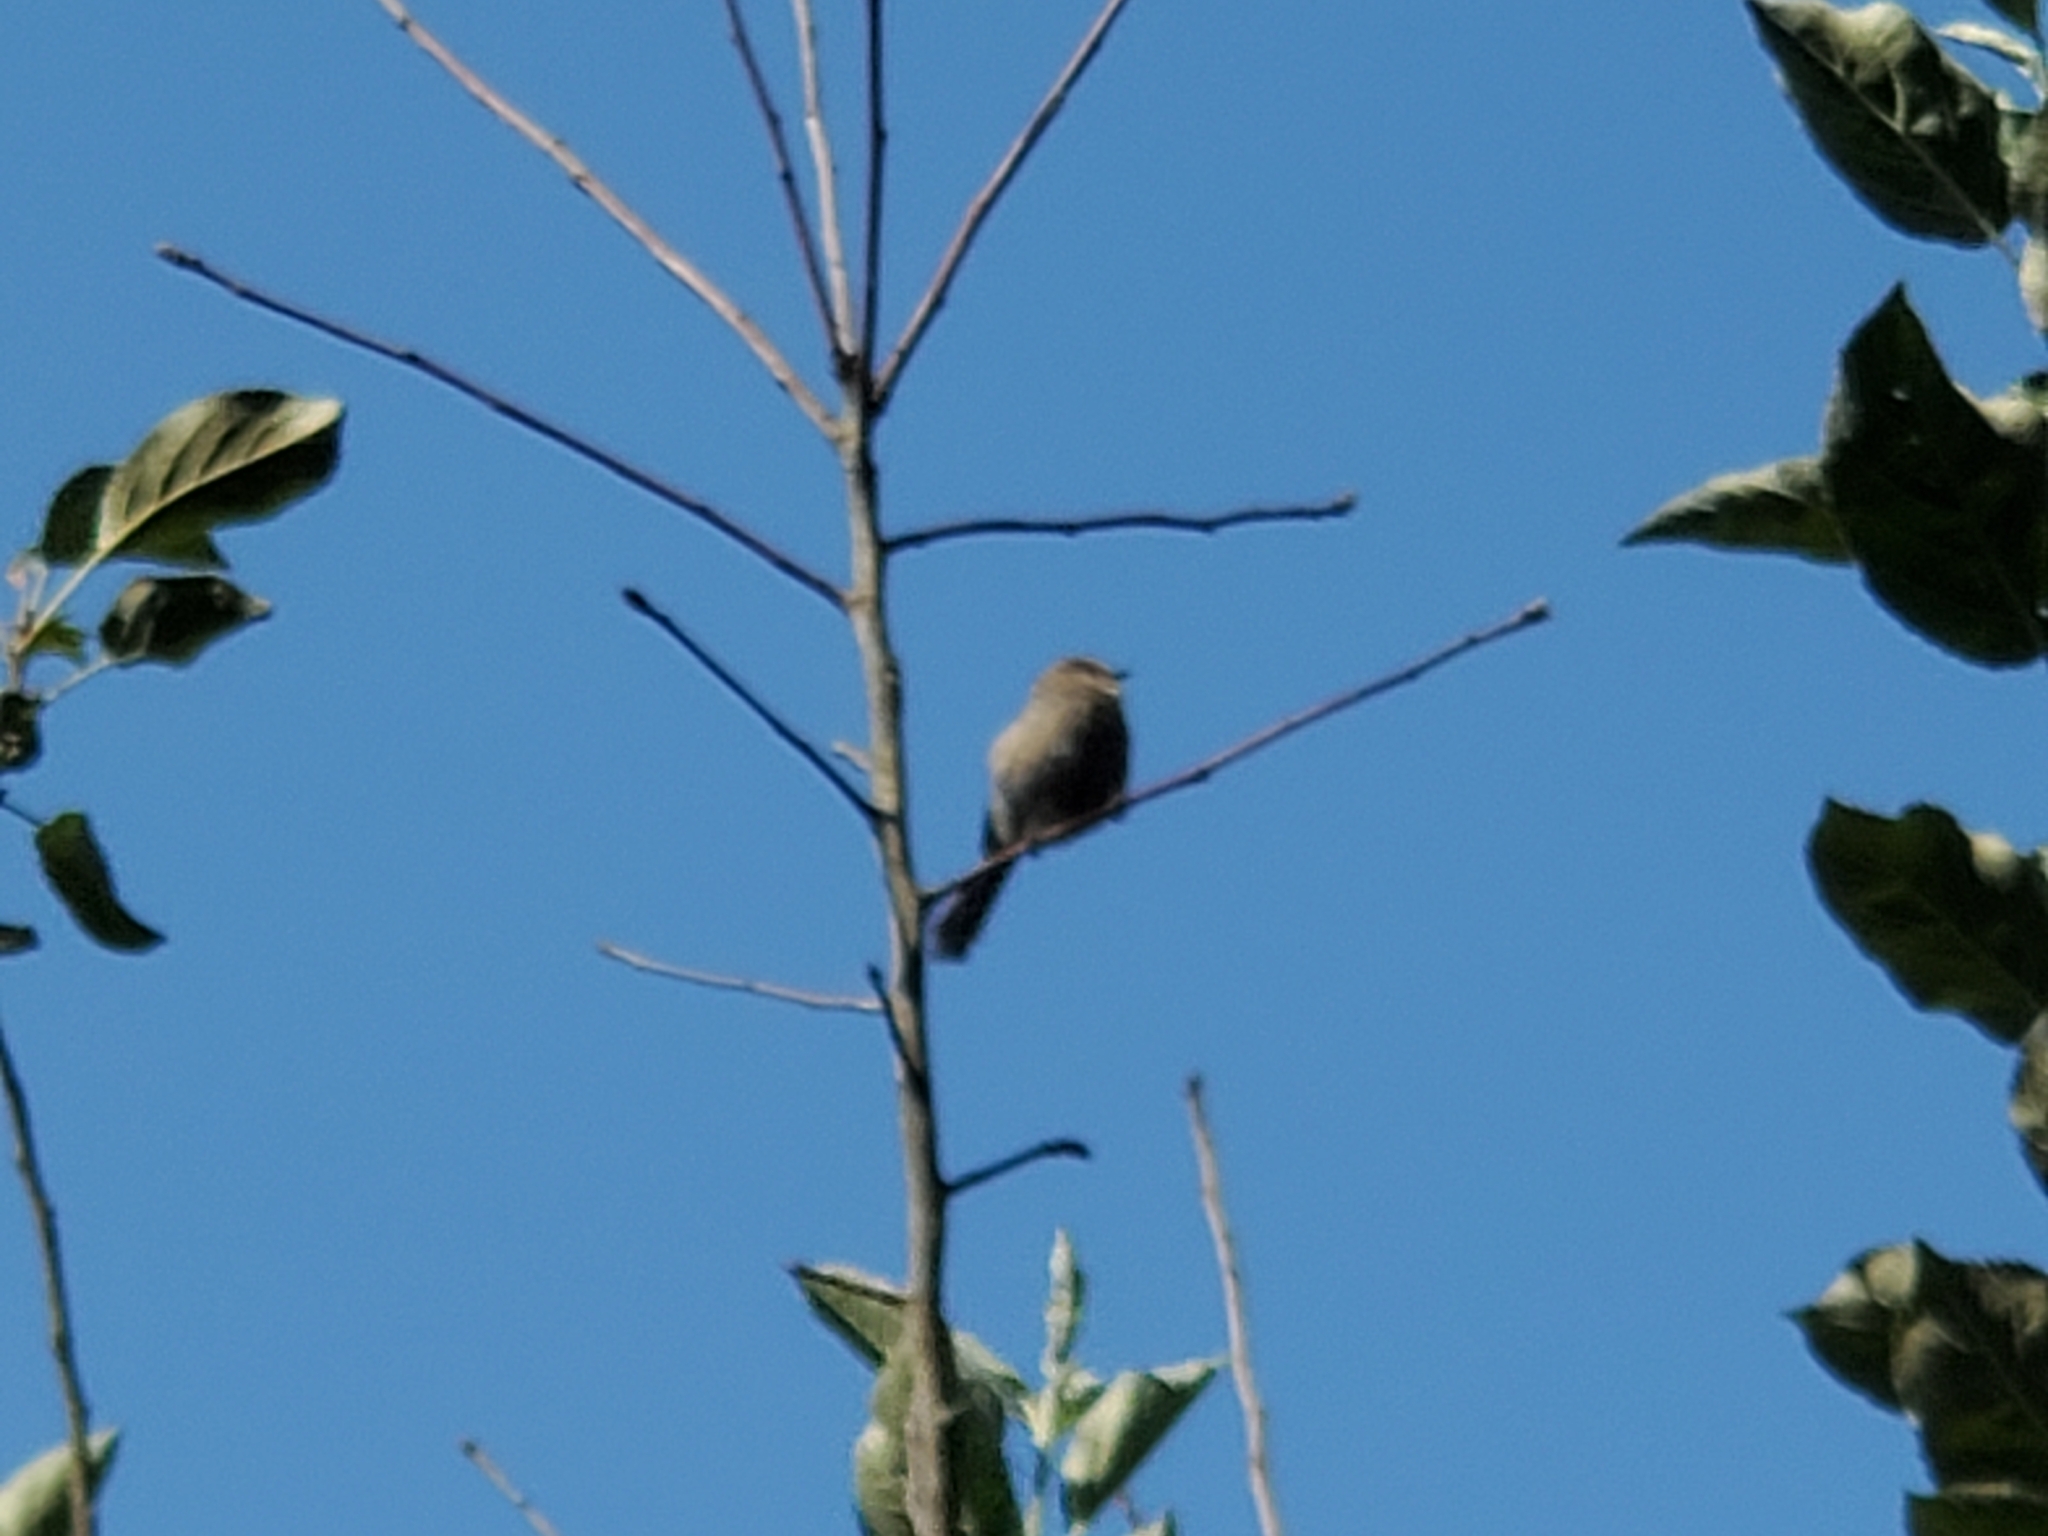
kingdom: Animalia
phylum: Chordata
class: Aves
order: Passeriformes
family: Aegithalidae
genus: Psaltriparus
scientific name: Psaltriparus minimus
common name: American bushtit
